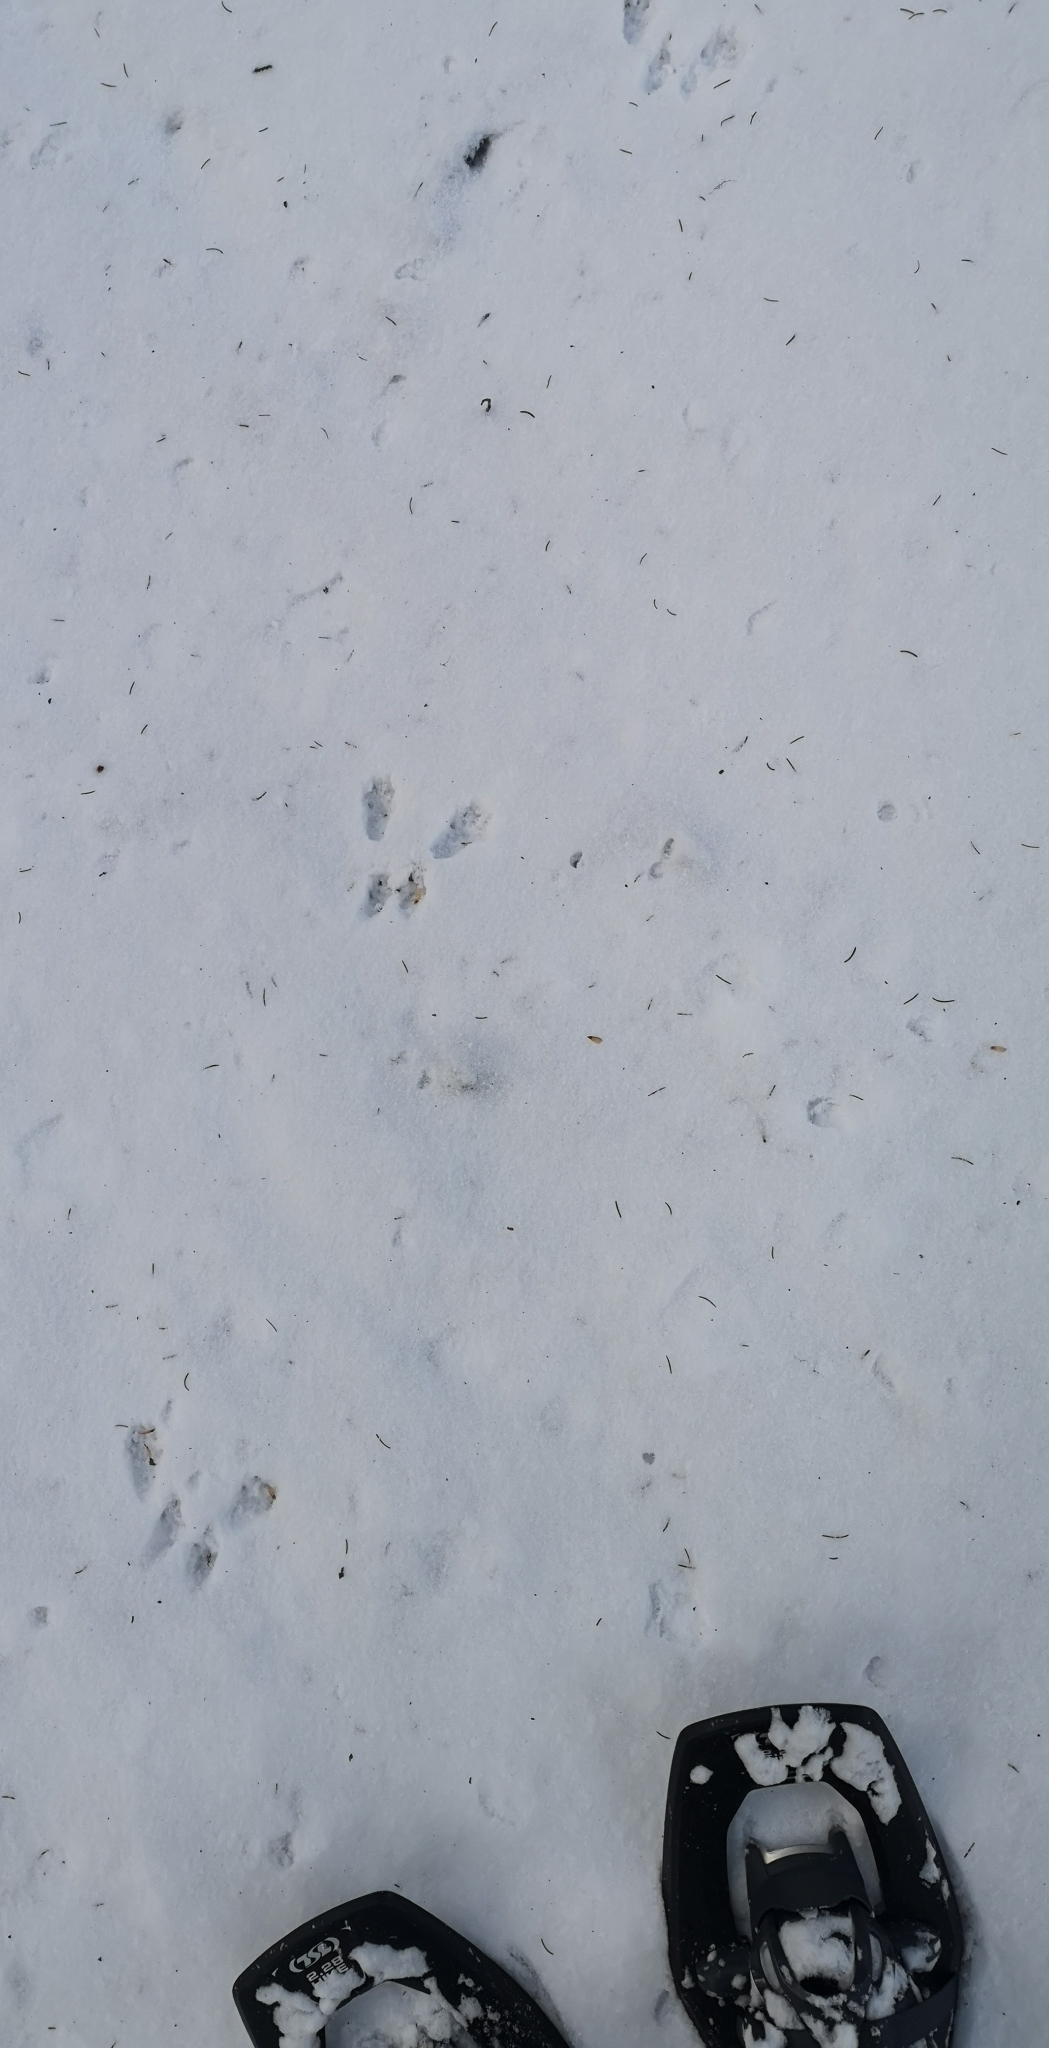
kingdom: Animalia
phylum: Chordata
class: Mammalia
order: Rodentia
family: Sciuridae
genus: Sciurus
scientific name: Sciurus vulgaris
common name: Eurasian red squirrel
